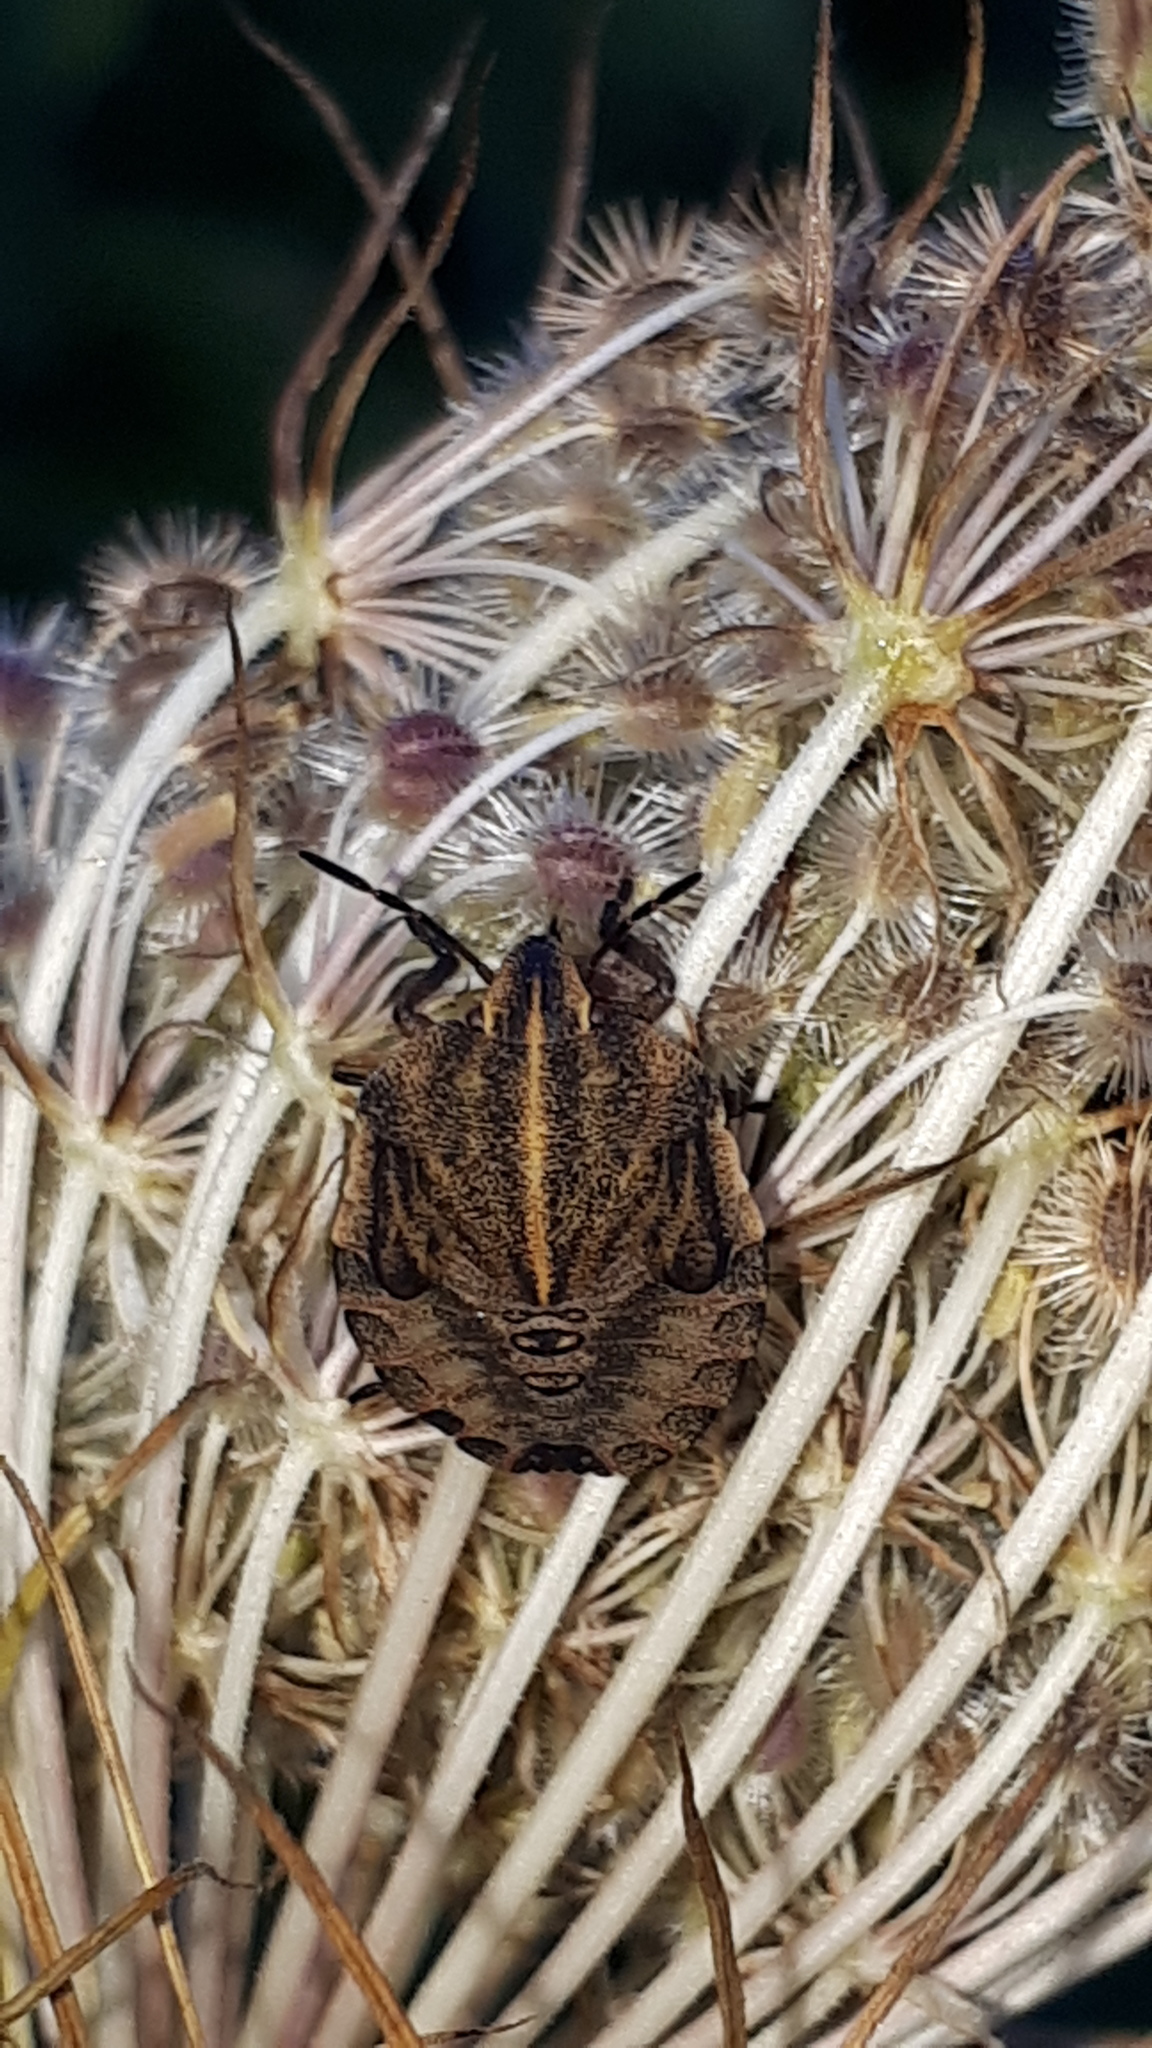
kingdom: Animalia
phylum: Arthropoda
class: Insecta
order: Hemiptera
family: Pentatomidae
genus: Graphosoma
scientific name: Graphosoma italicum
